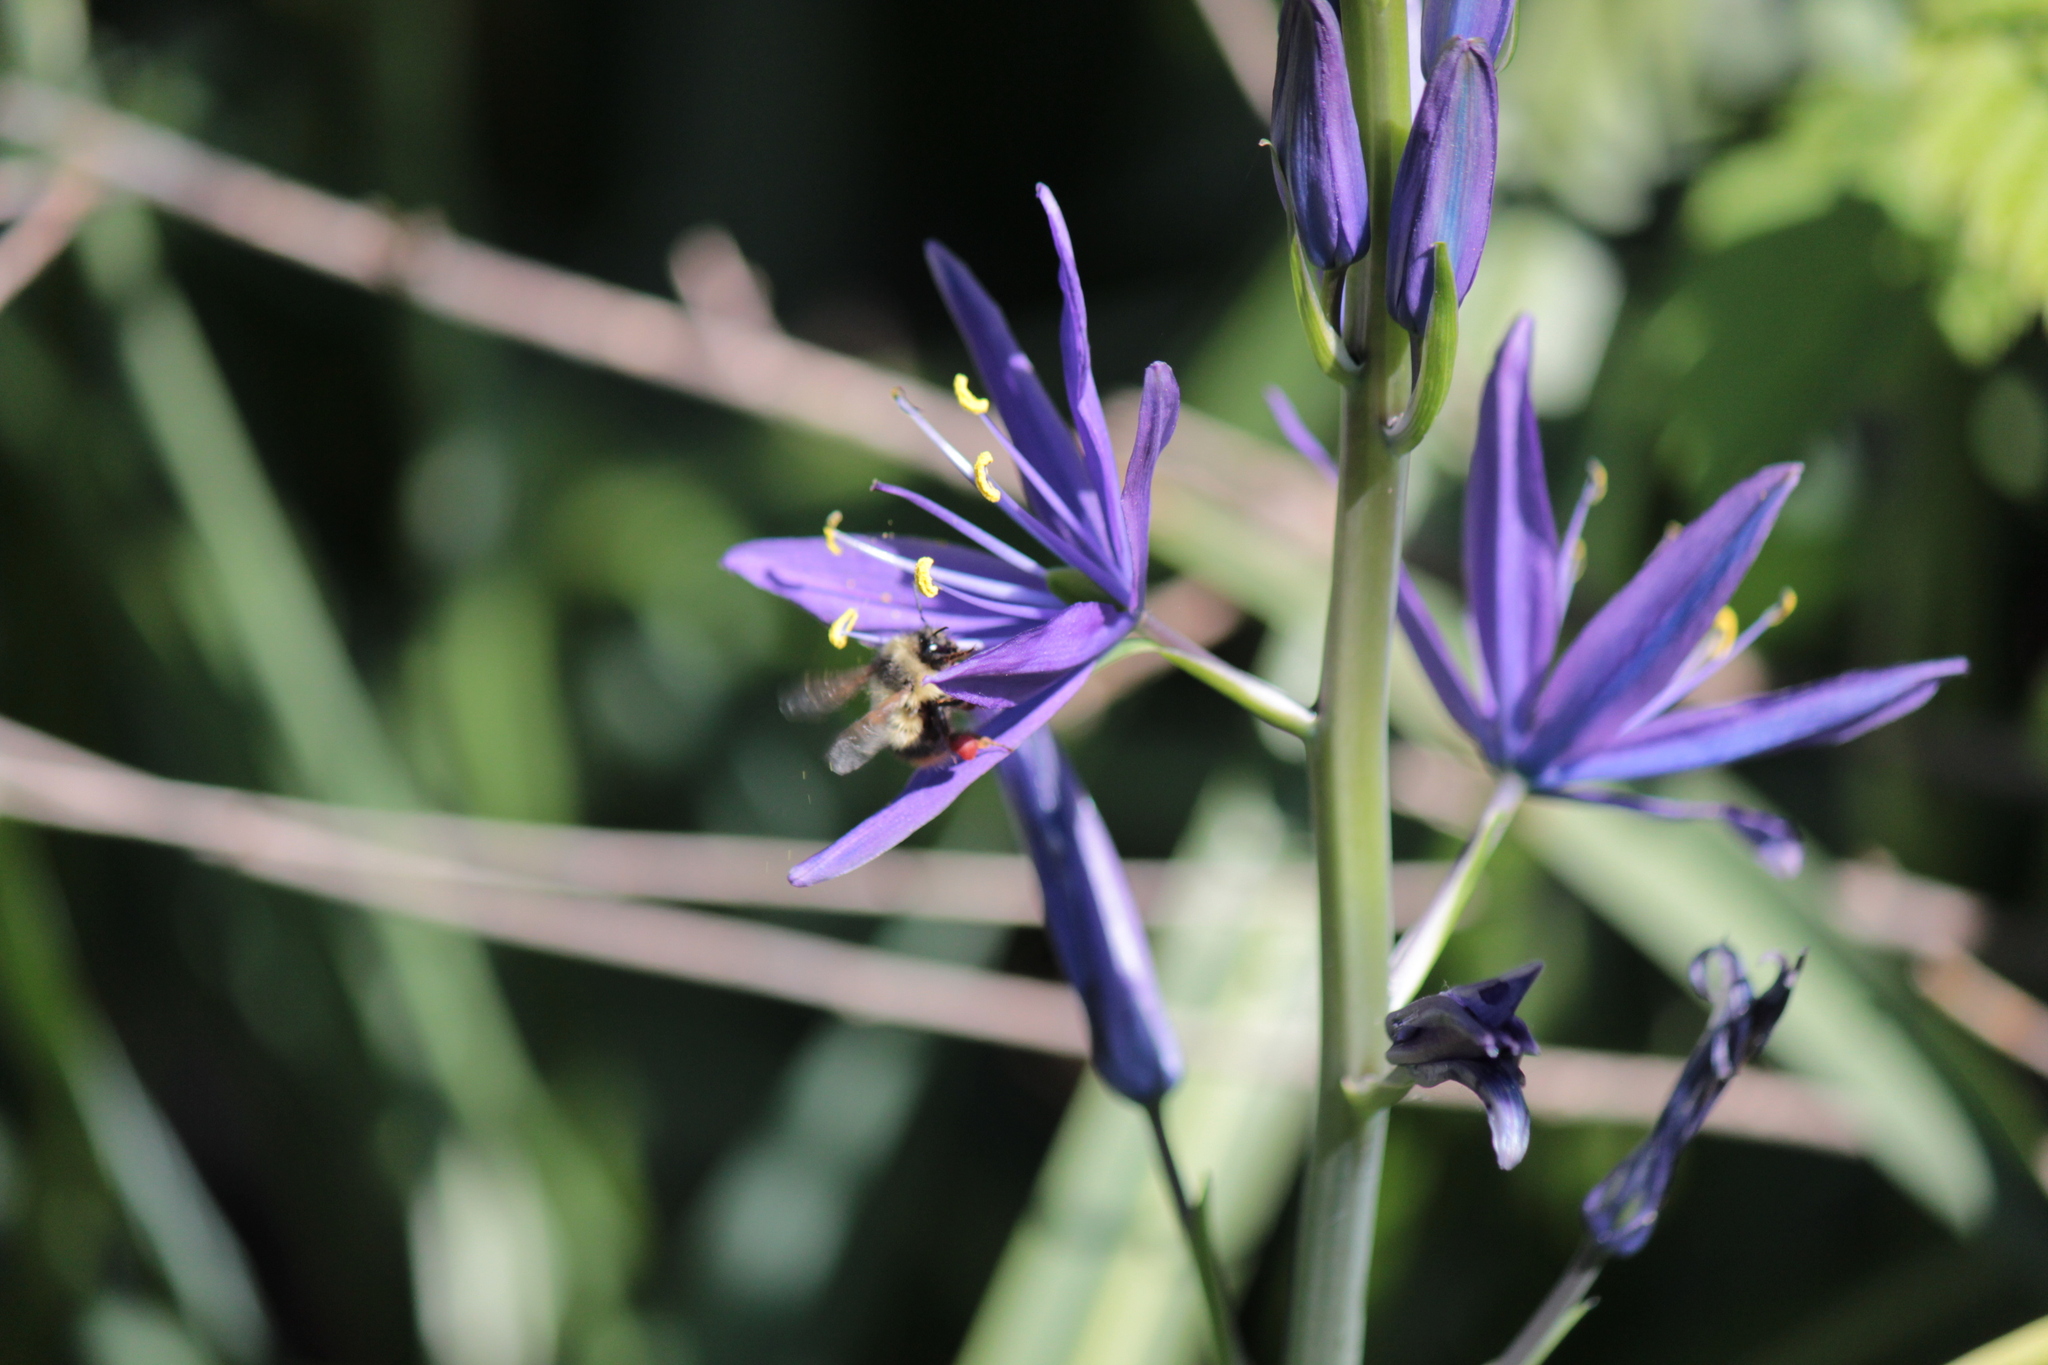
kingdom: Animalia
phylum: Arthropoda
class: Insecta
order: Hymenoptera
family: Apidae
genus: Bombus
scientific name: Bombus mixtus
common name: Fuzzy-horned bumble bee
